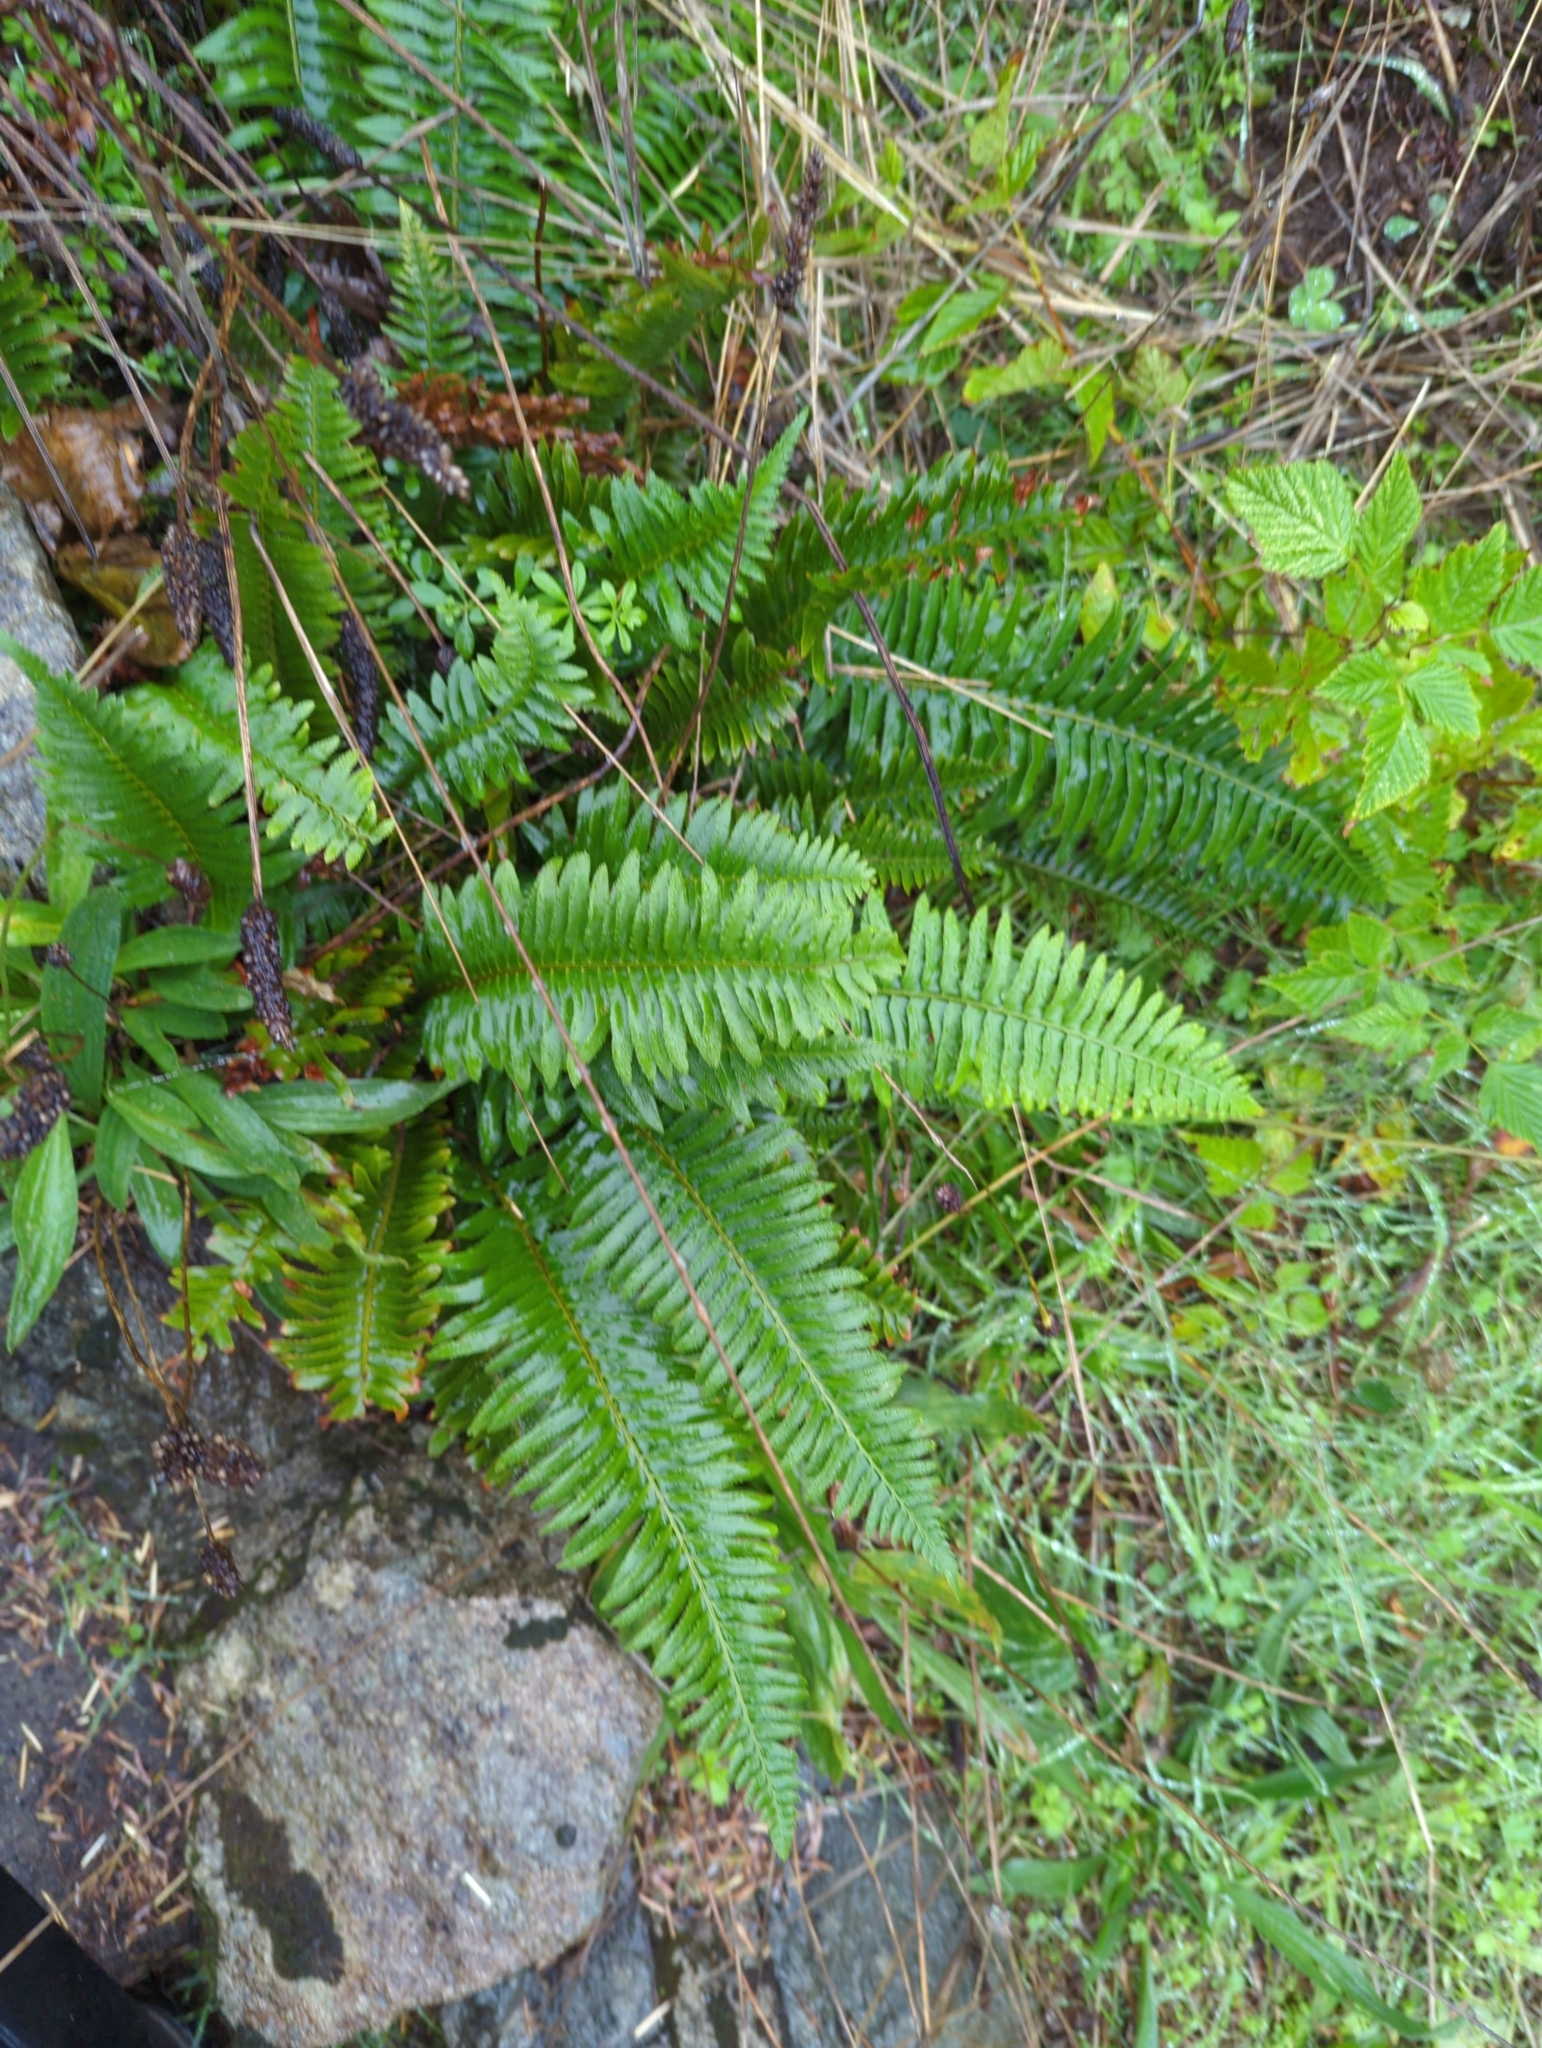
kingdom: Plantae
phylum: Tracheophyta
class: Polypodiopsida
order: Polypodiales
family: Dryopteridaceae
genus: Polystichum
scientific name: Polystichum munitum
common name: Western sword-fern
